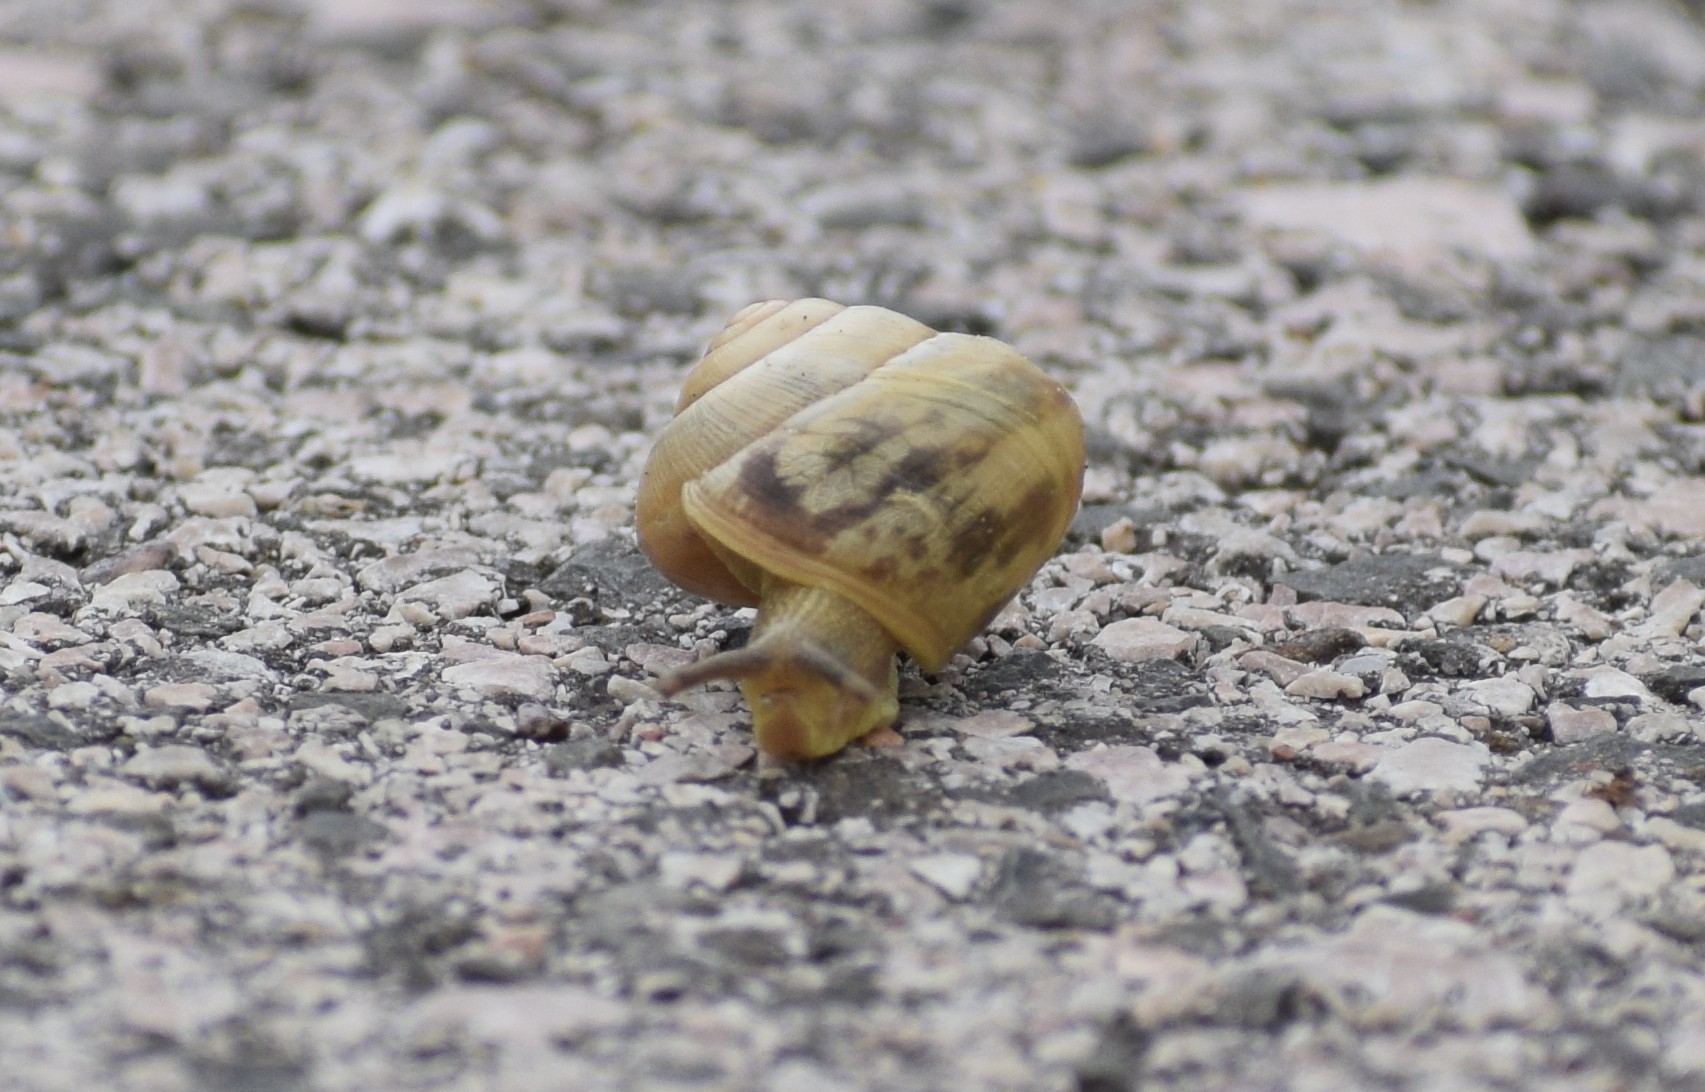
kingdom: Animalia
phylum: Mollusca
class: Gastropoda
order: Stylommatophora
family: Helicidae
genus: Caucasotachea
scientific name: Caucasotachea vindobonensis
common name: European helicid land snail
